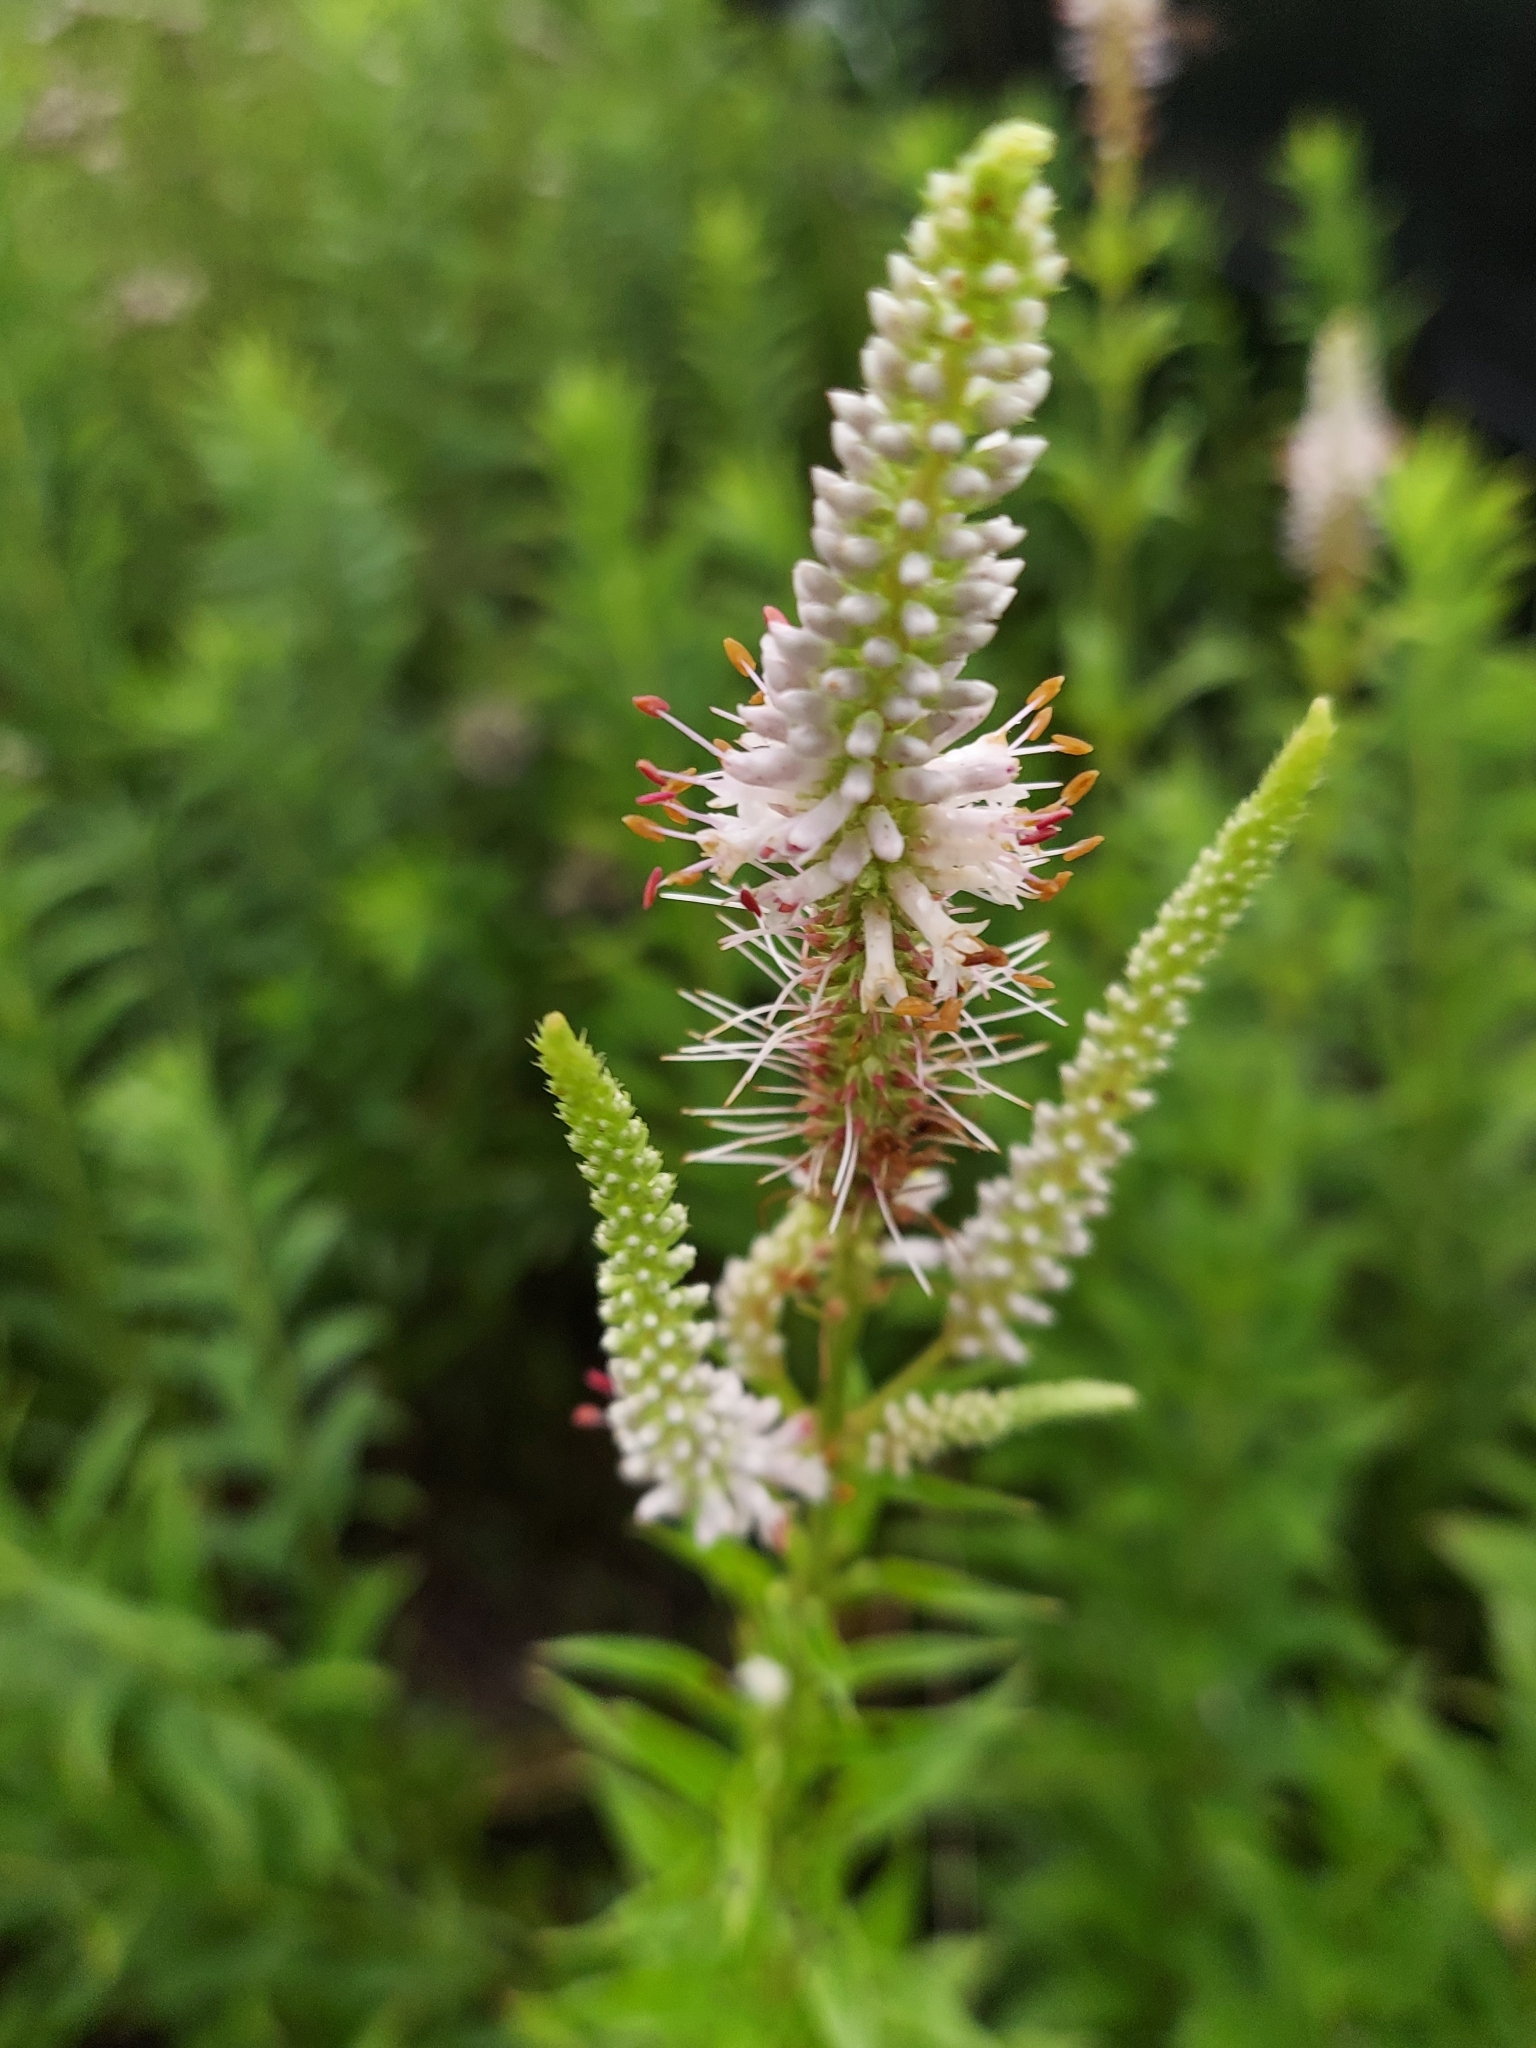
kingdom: Plantae
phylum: Tracheophyta
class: Magnoliopsida
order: Lamiales
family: Plantaginaceae
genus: Veronicastrum
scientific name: Veronicastrum virginicum
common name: Blackroot
